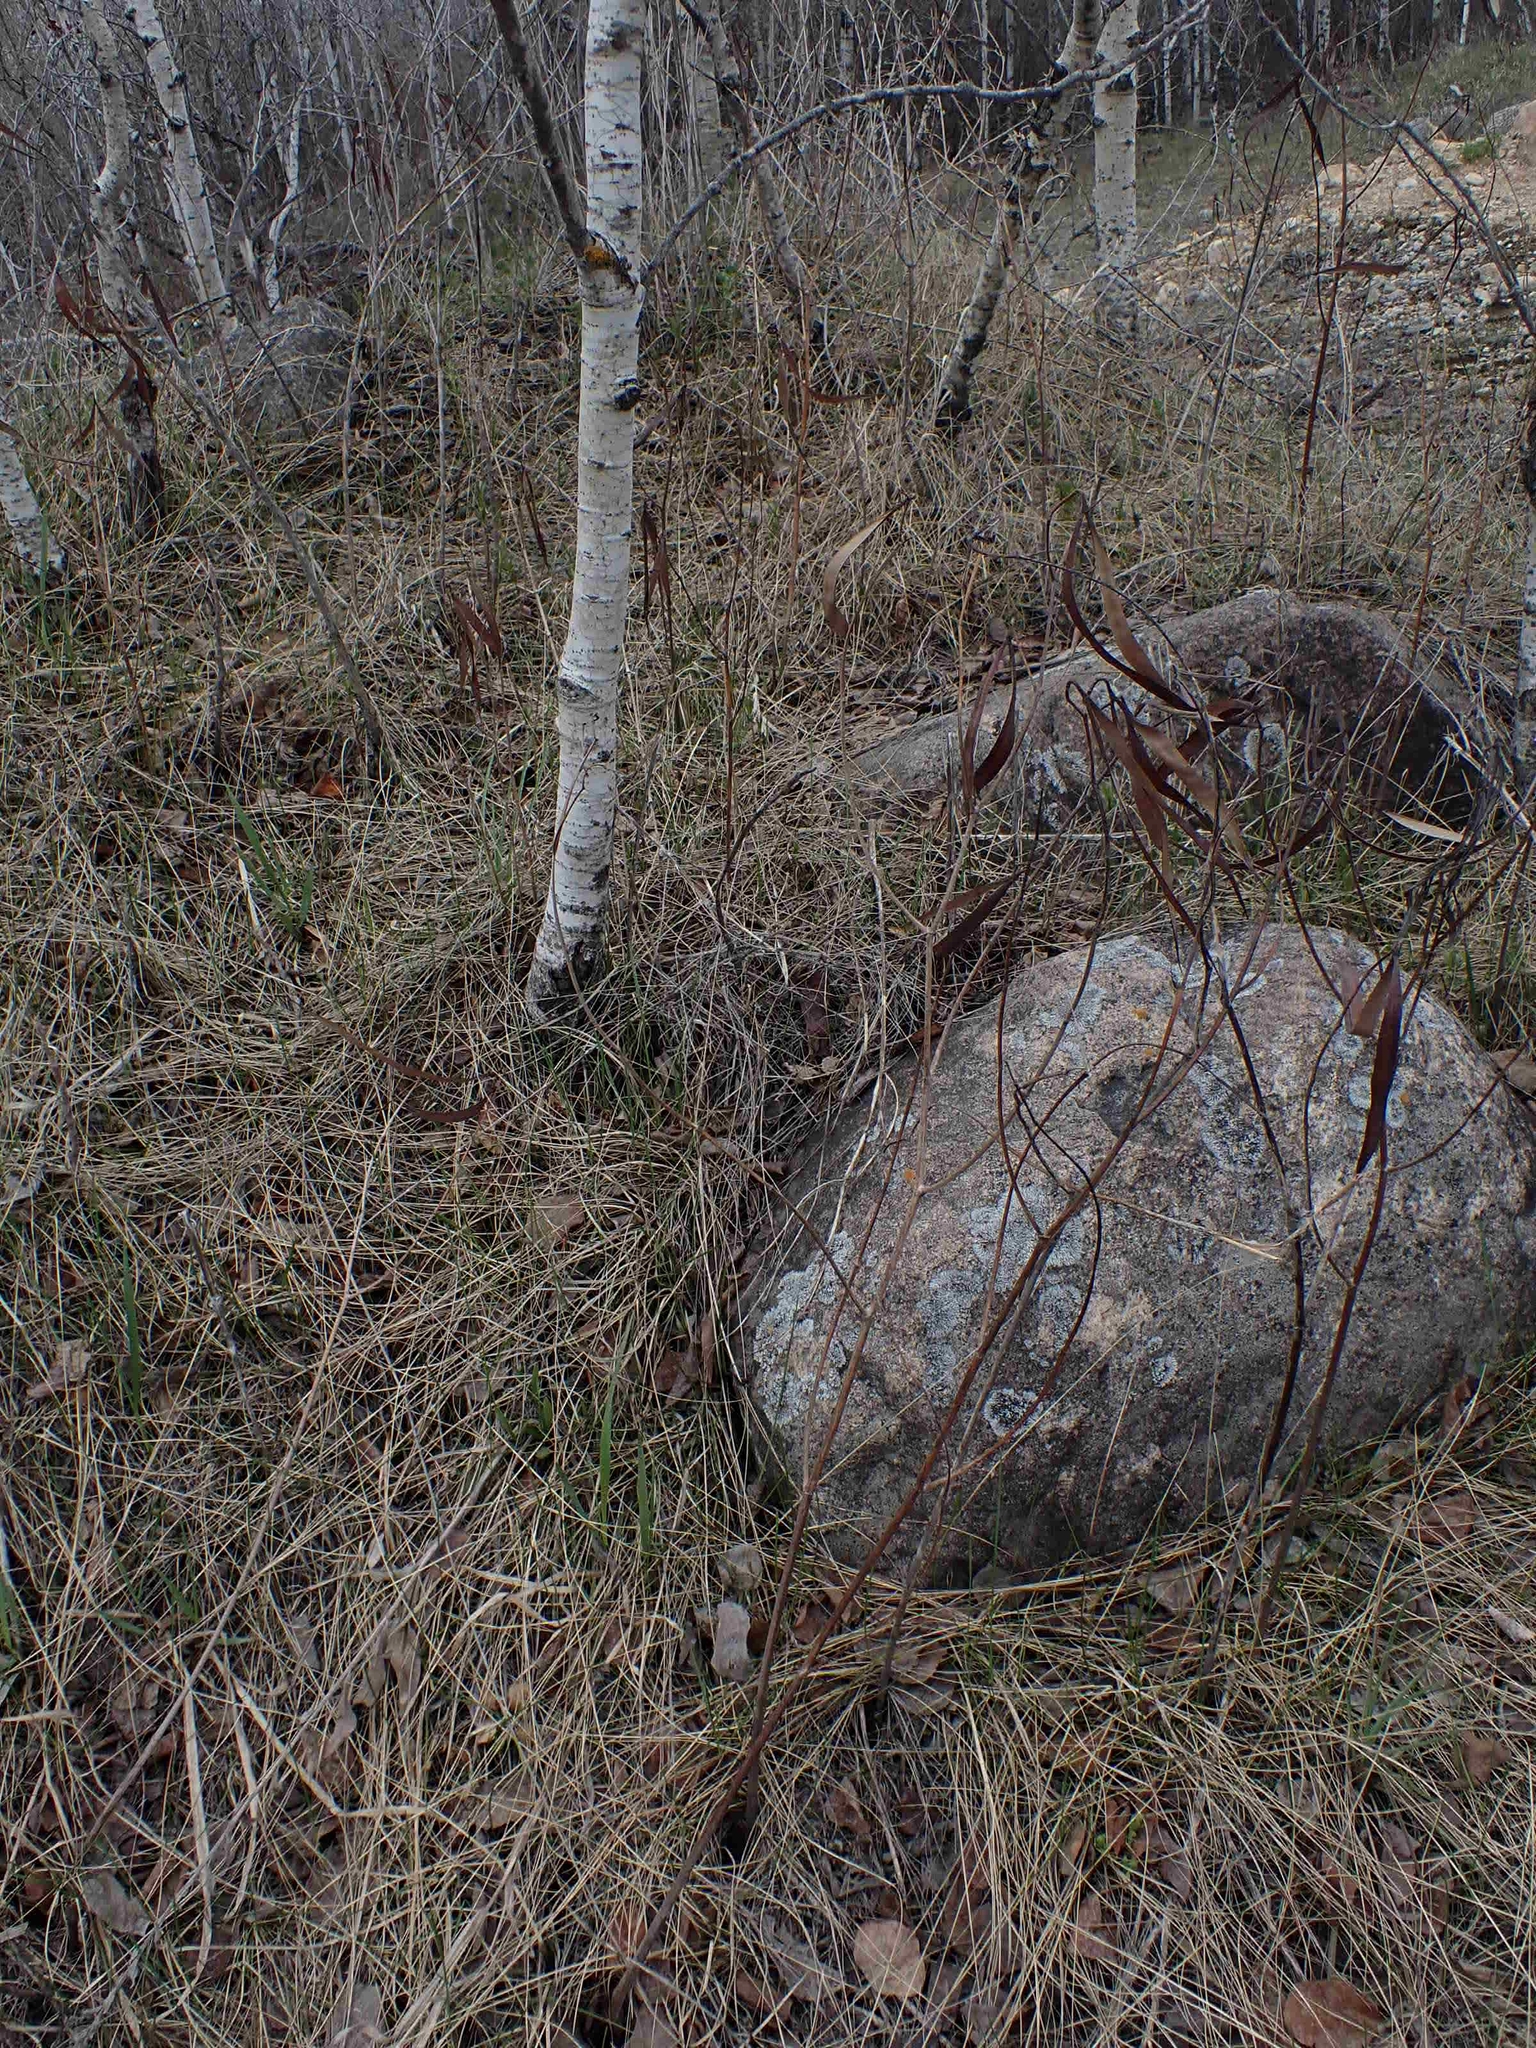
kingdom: Plantae
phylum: Tracheophyta
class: Magnoliopsida
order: Gentianales
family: Apocynaceae
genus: Apocynum
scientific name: Apocynum cannabinum
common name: Hemp dogbane
